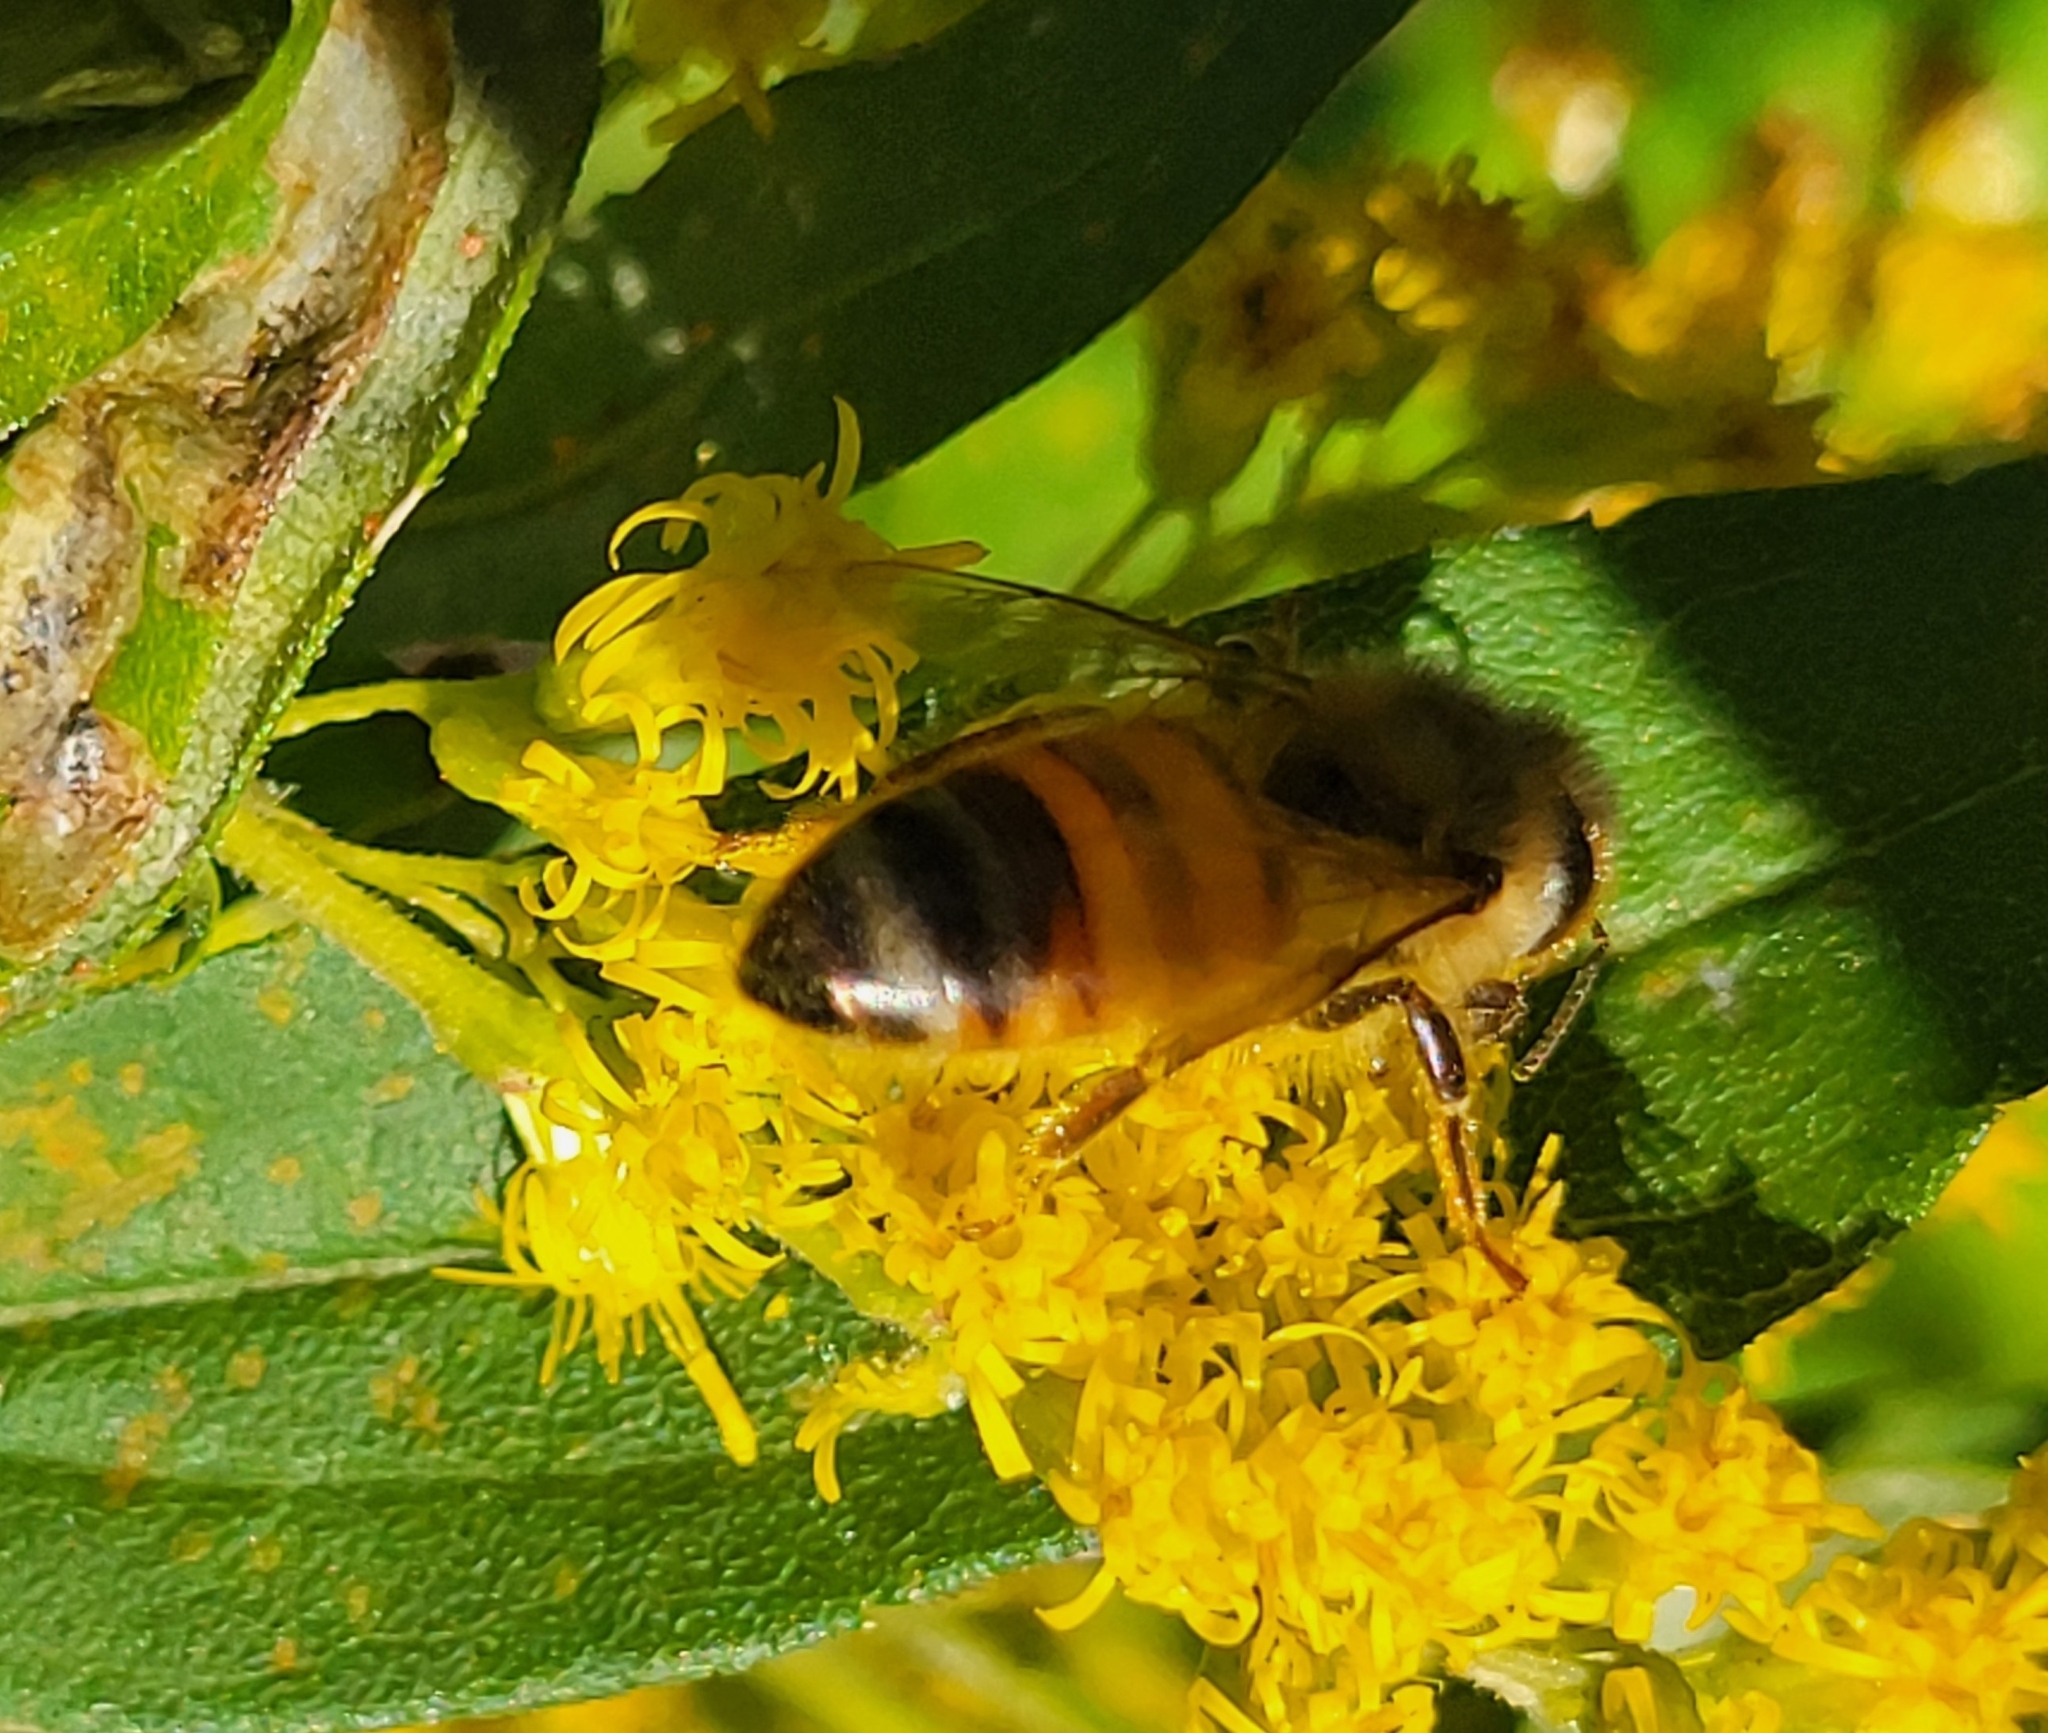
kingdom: Animalia
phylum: Arthropoda
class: Insecta
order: Hymenoptera
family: Apidae
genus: Apis
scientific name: Apis mellifera
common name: Honey bee
